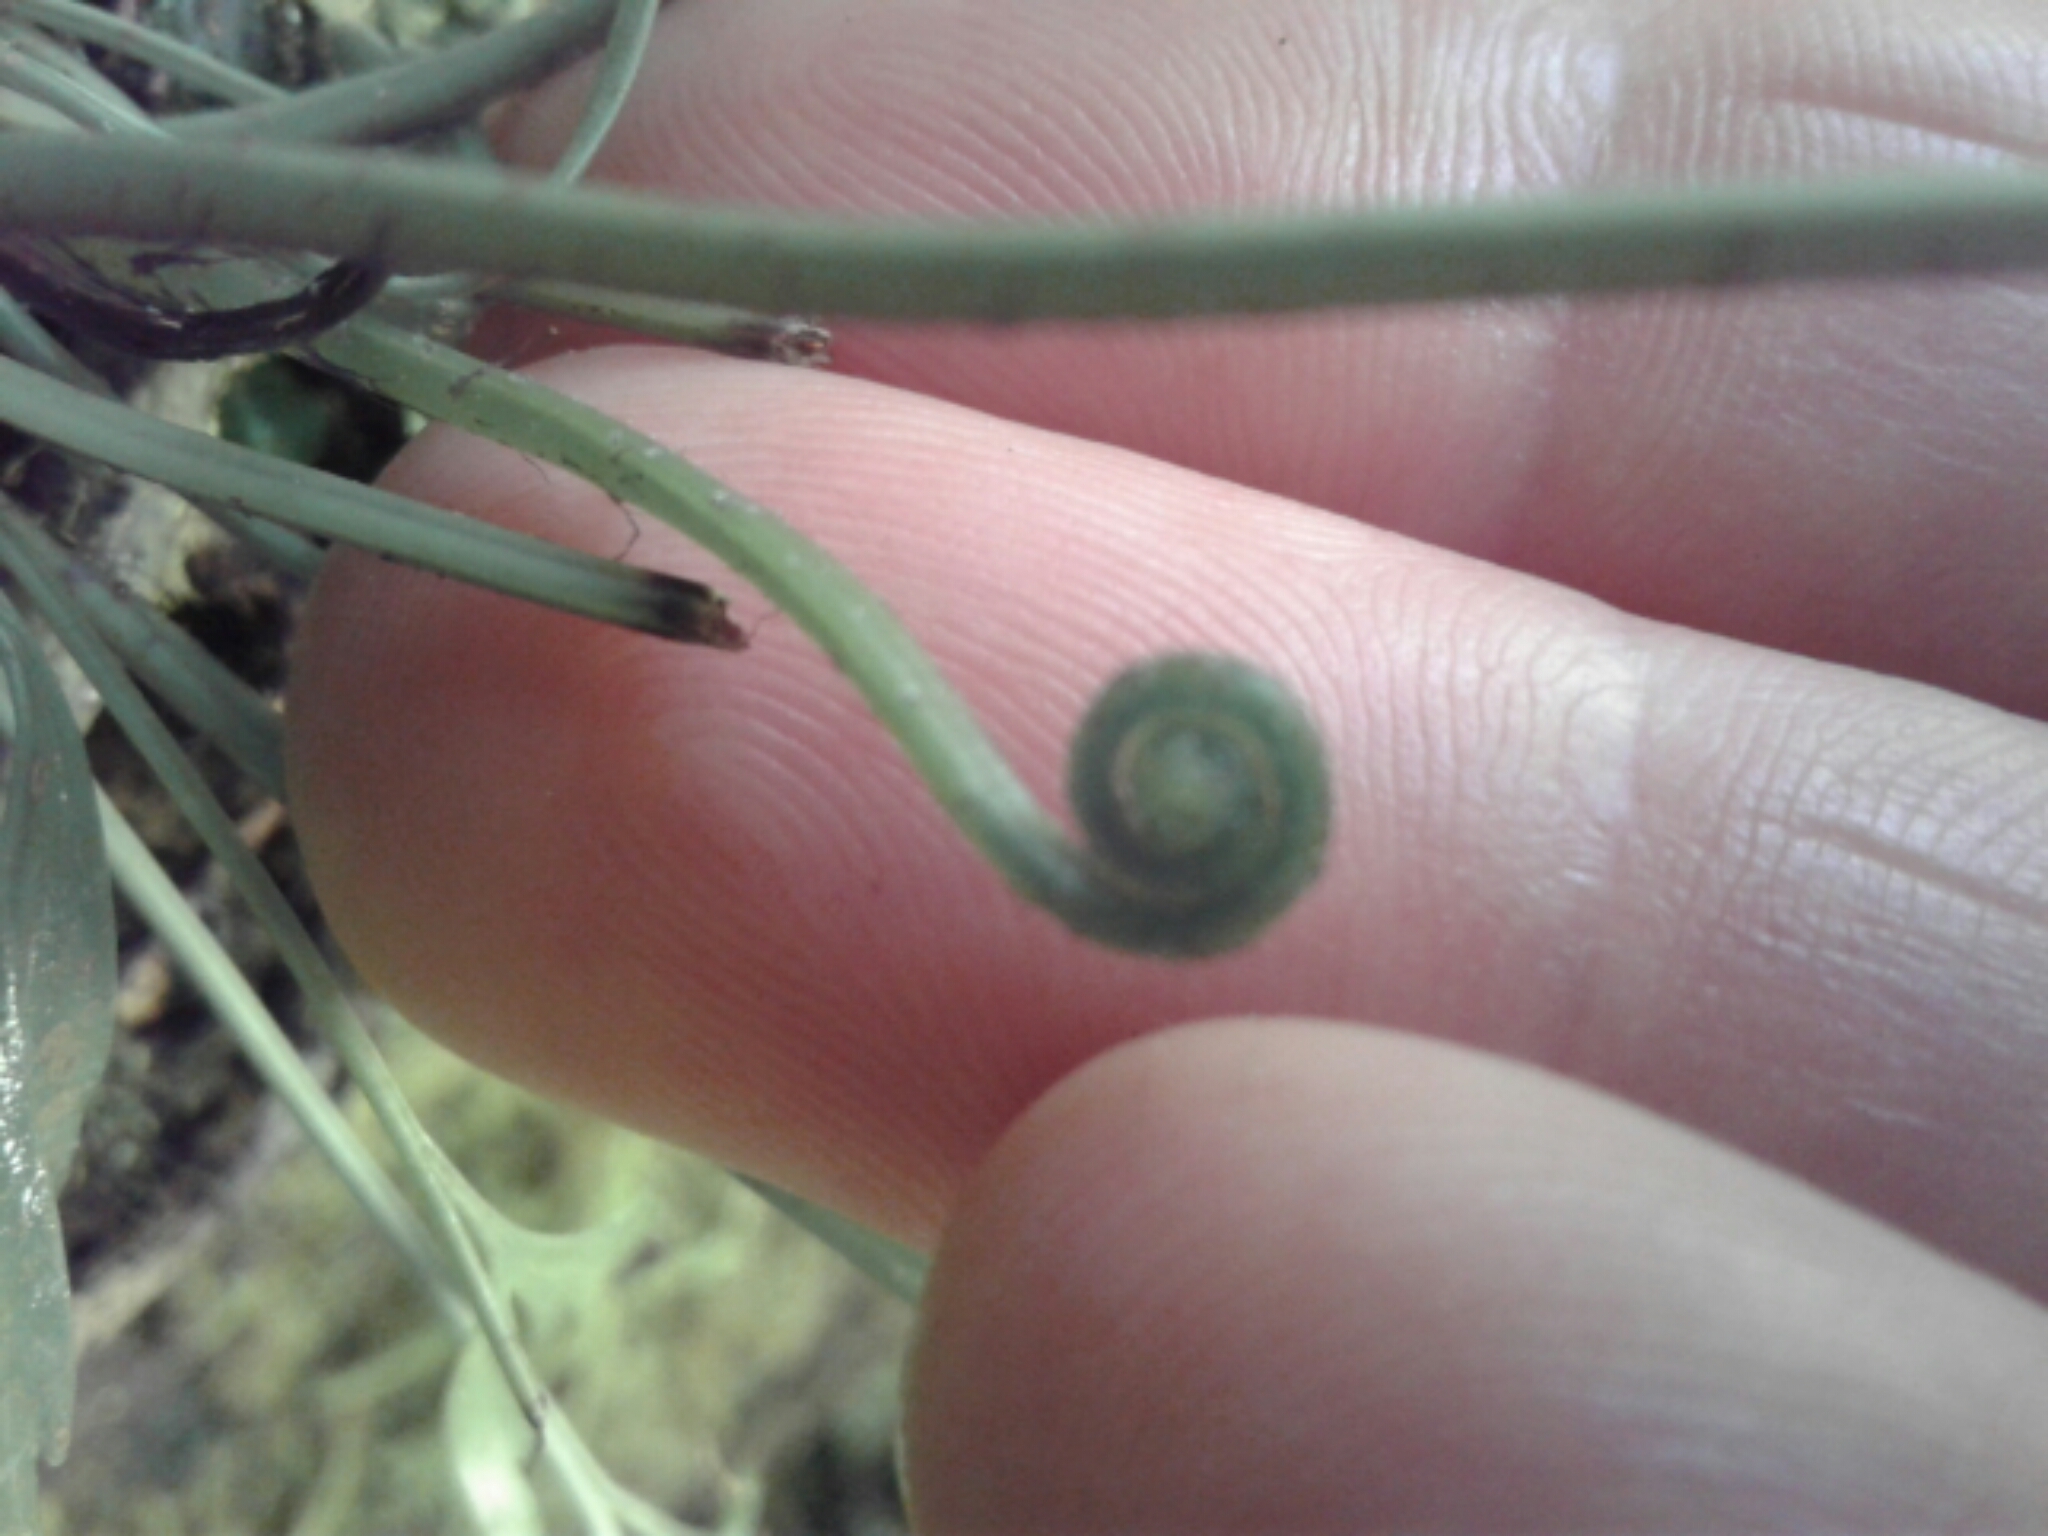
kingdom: Plantae
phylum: Tracheophyta
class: Polypodiopsida
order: Polypodiales
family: Aspleniaceae
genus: Asplenium
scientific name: Asplenium flaccidum
